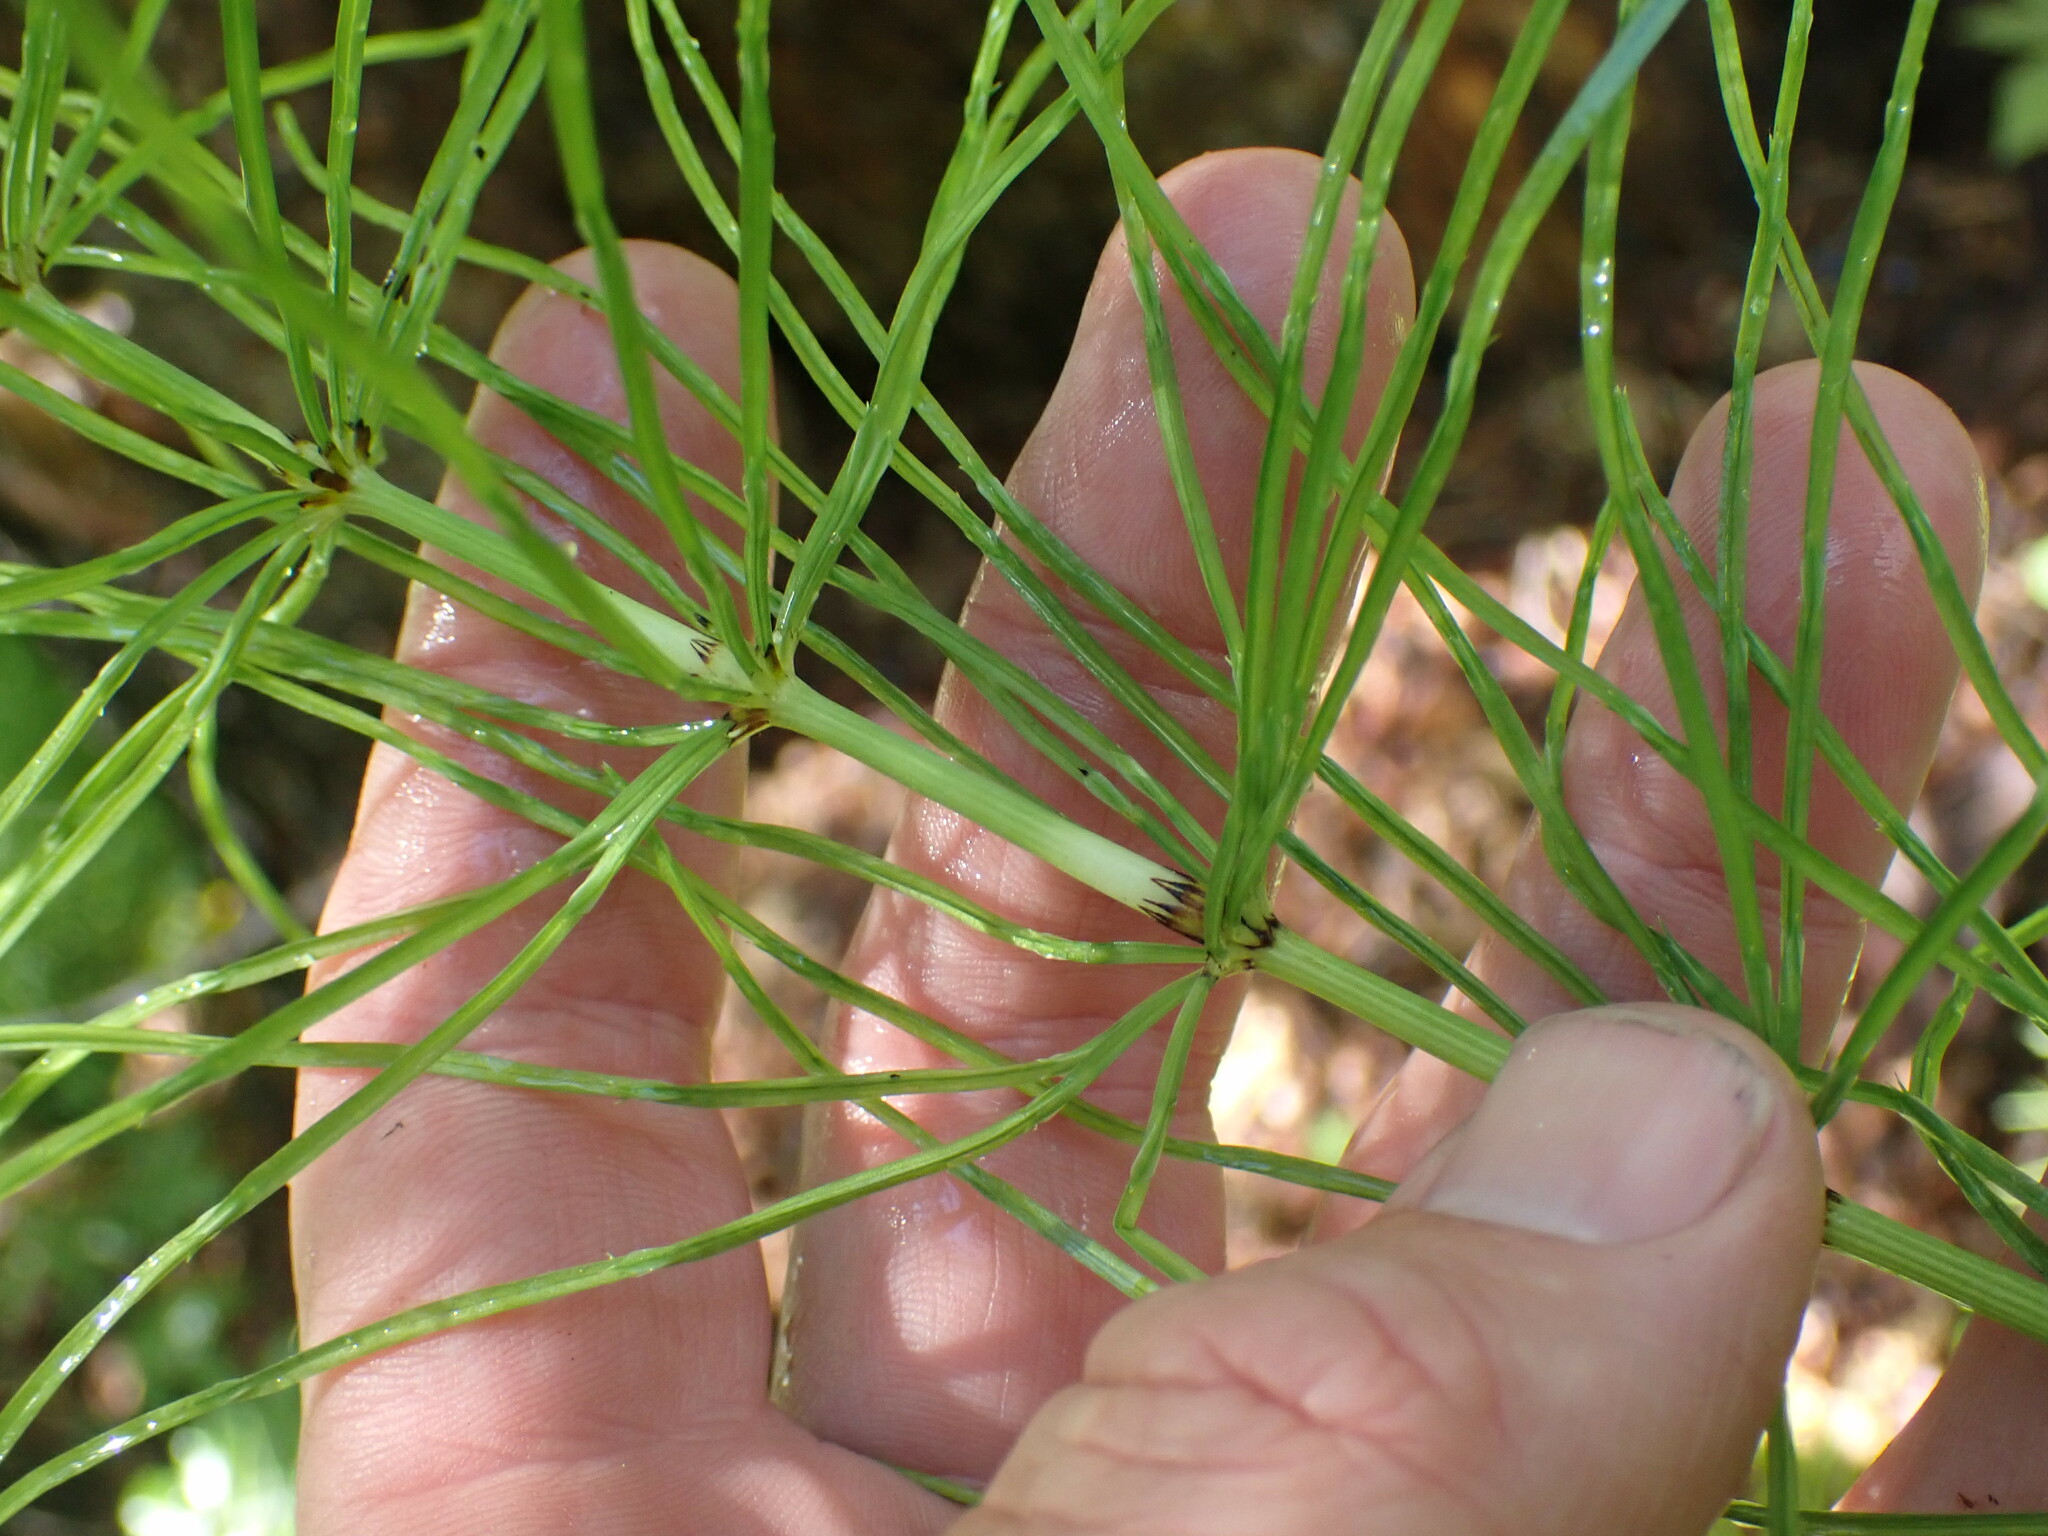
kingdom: Plantae
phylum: Tracheophyta
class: Polypodiopsida
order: Equisetales
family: Equisetaceae
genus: Equisetum
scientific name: Equisetum arvense
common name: Field horsetail
